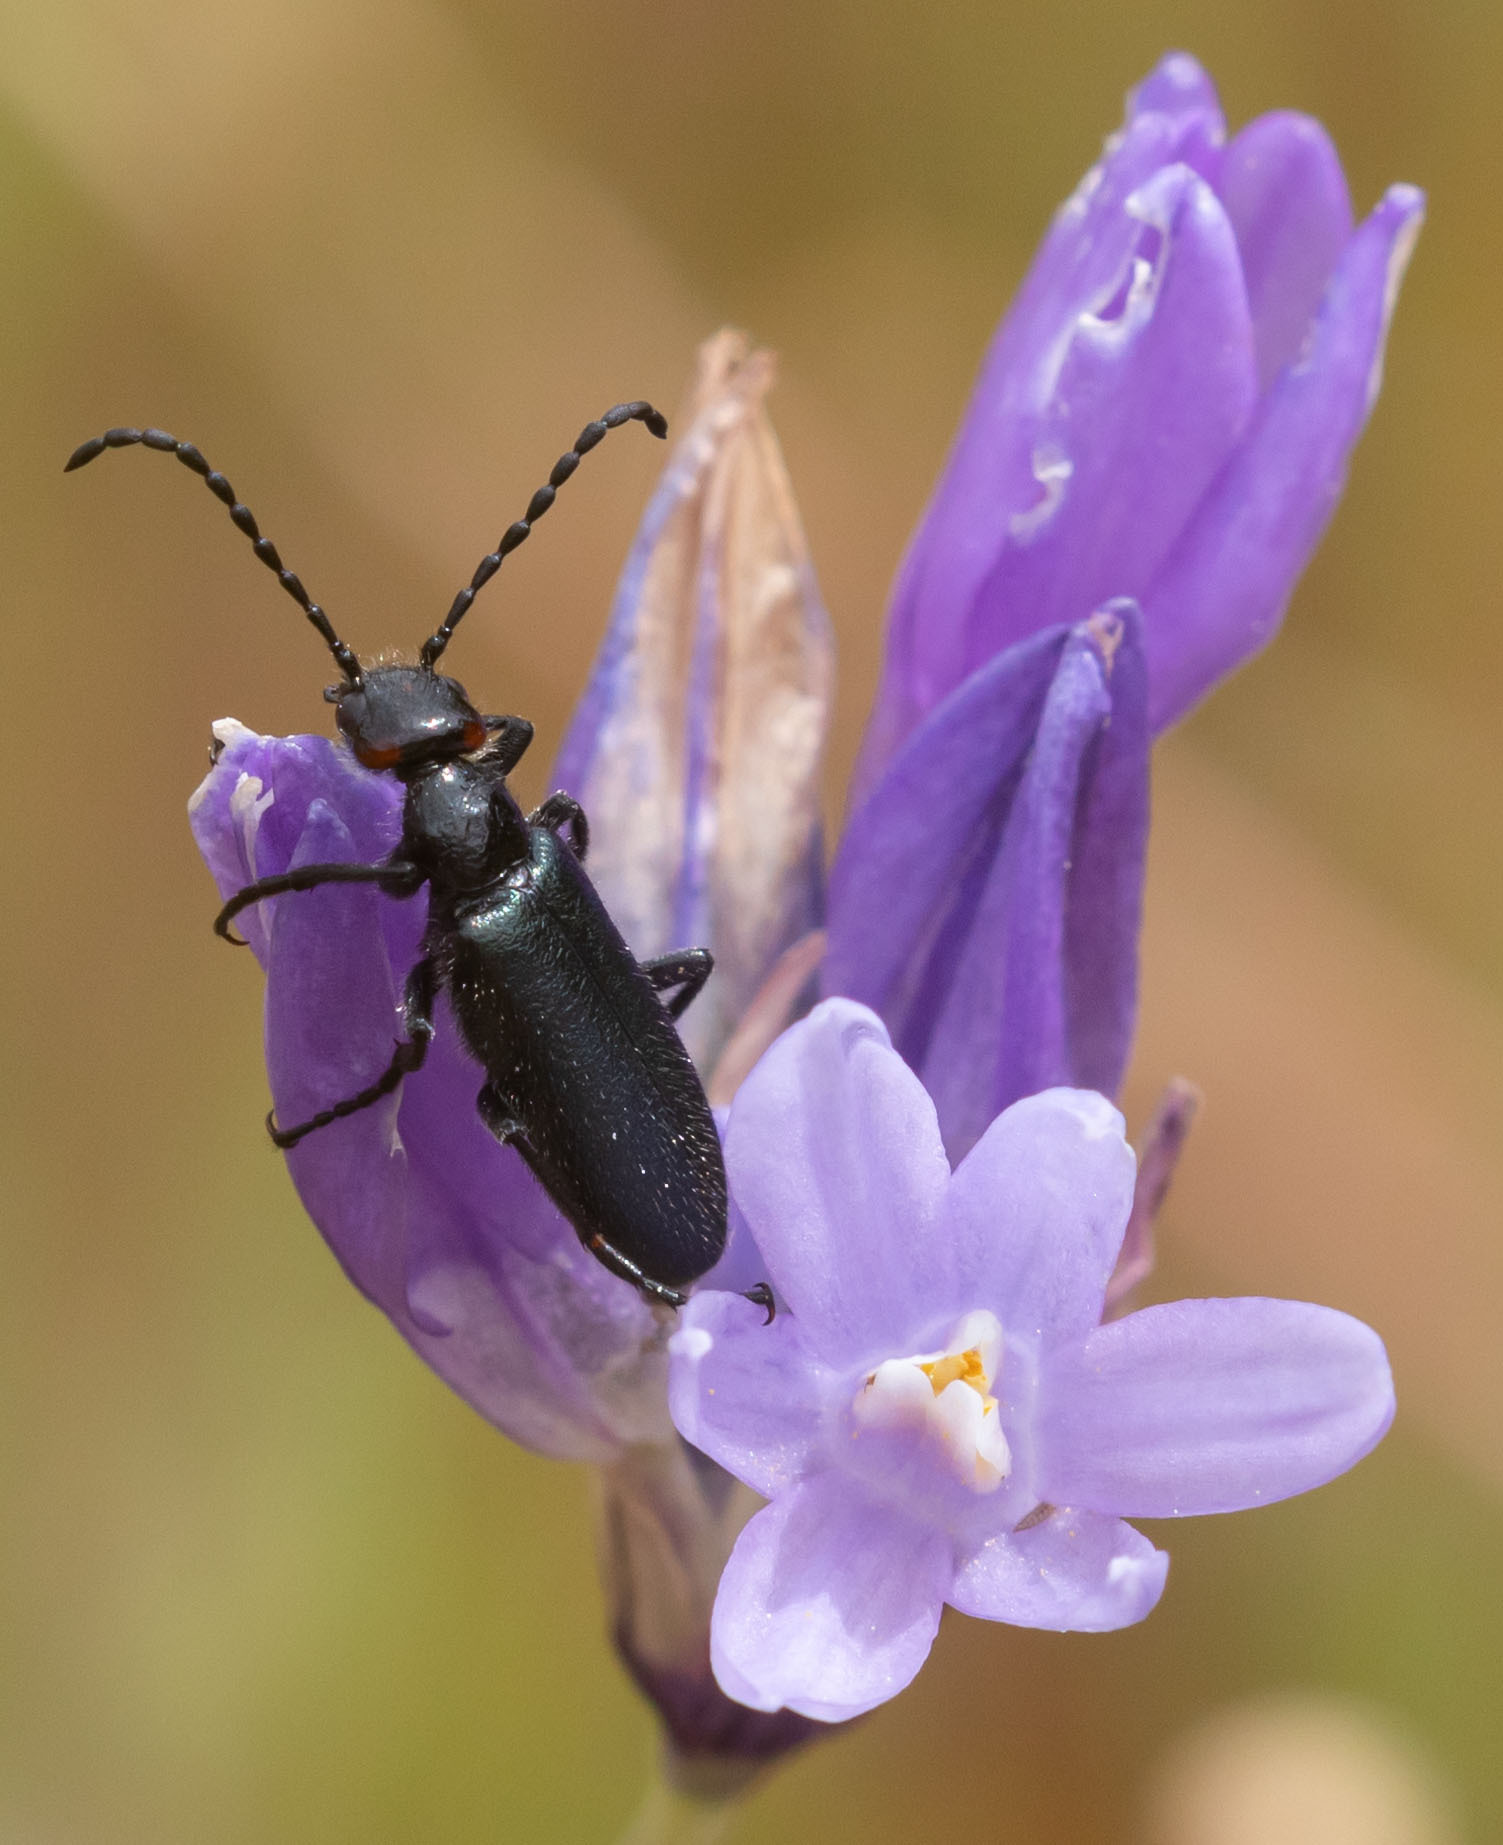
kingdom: Animalia
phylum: Arthropoda
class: Insecta
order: Coleoptera
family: Meloidae
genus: Lytta
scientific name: Lytta auriculata
